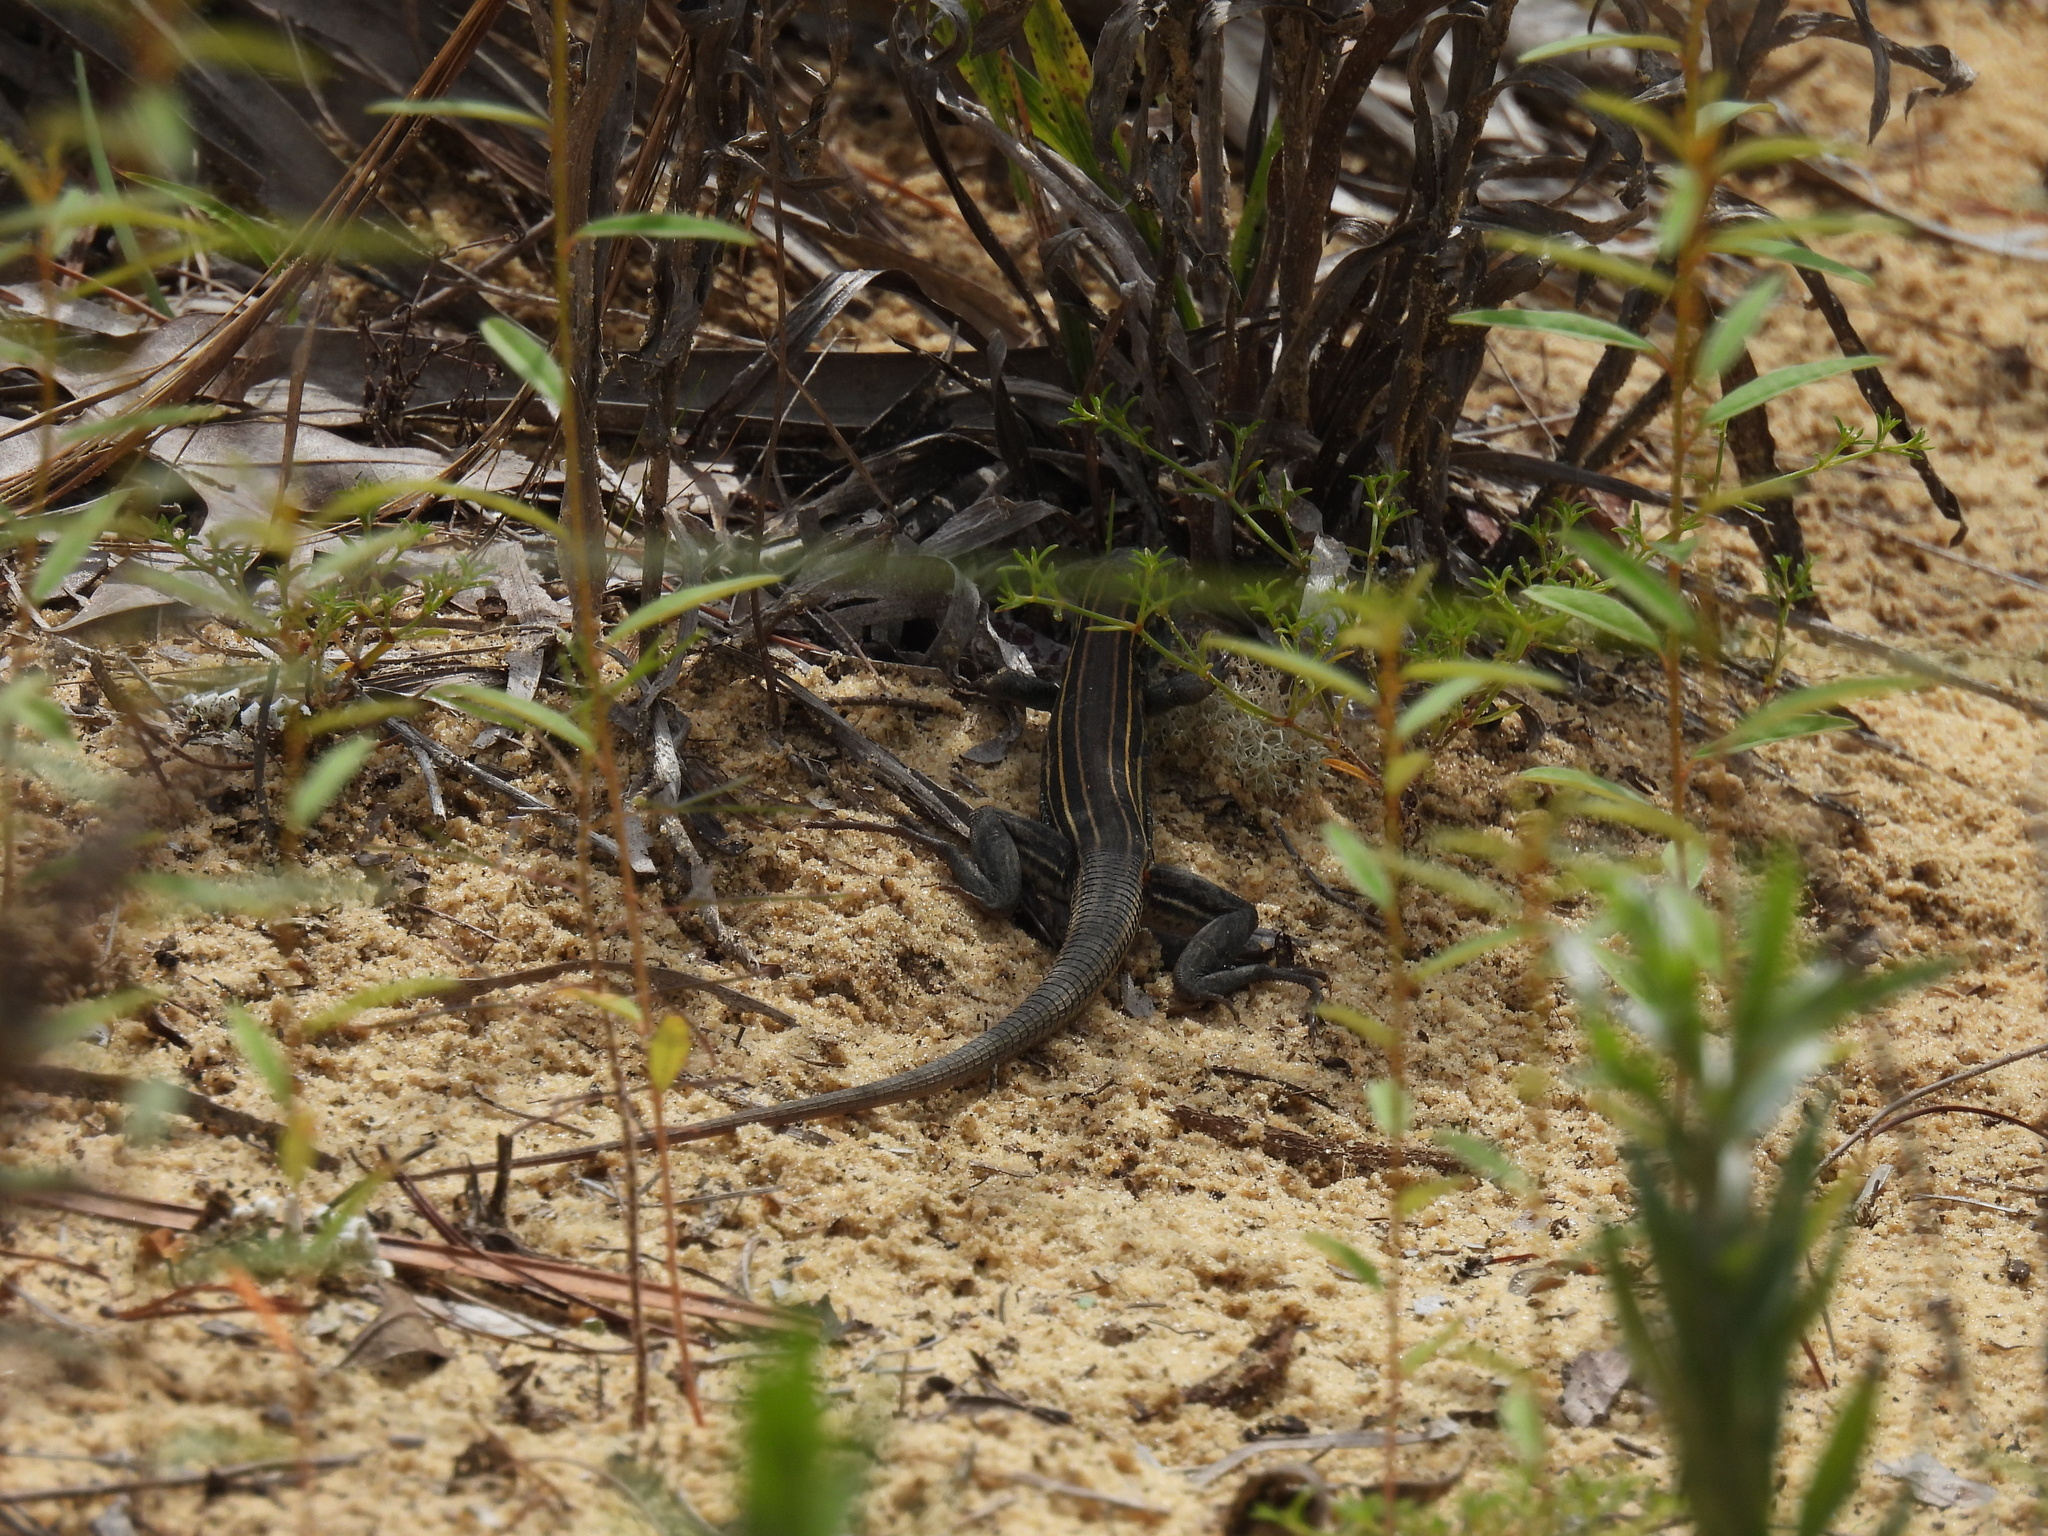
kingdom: Animalia
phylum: Chordata
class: Squamata
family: Teiidae
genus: Aspidoscelis
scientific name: Aspidoscelis sexlineatus
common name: Six-lined racerunner
